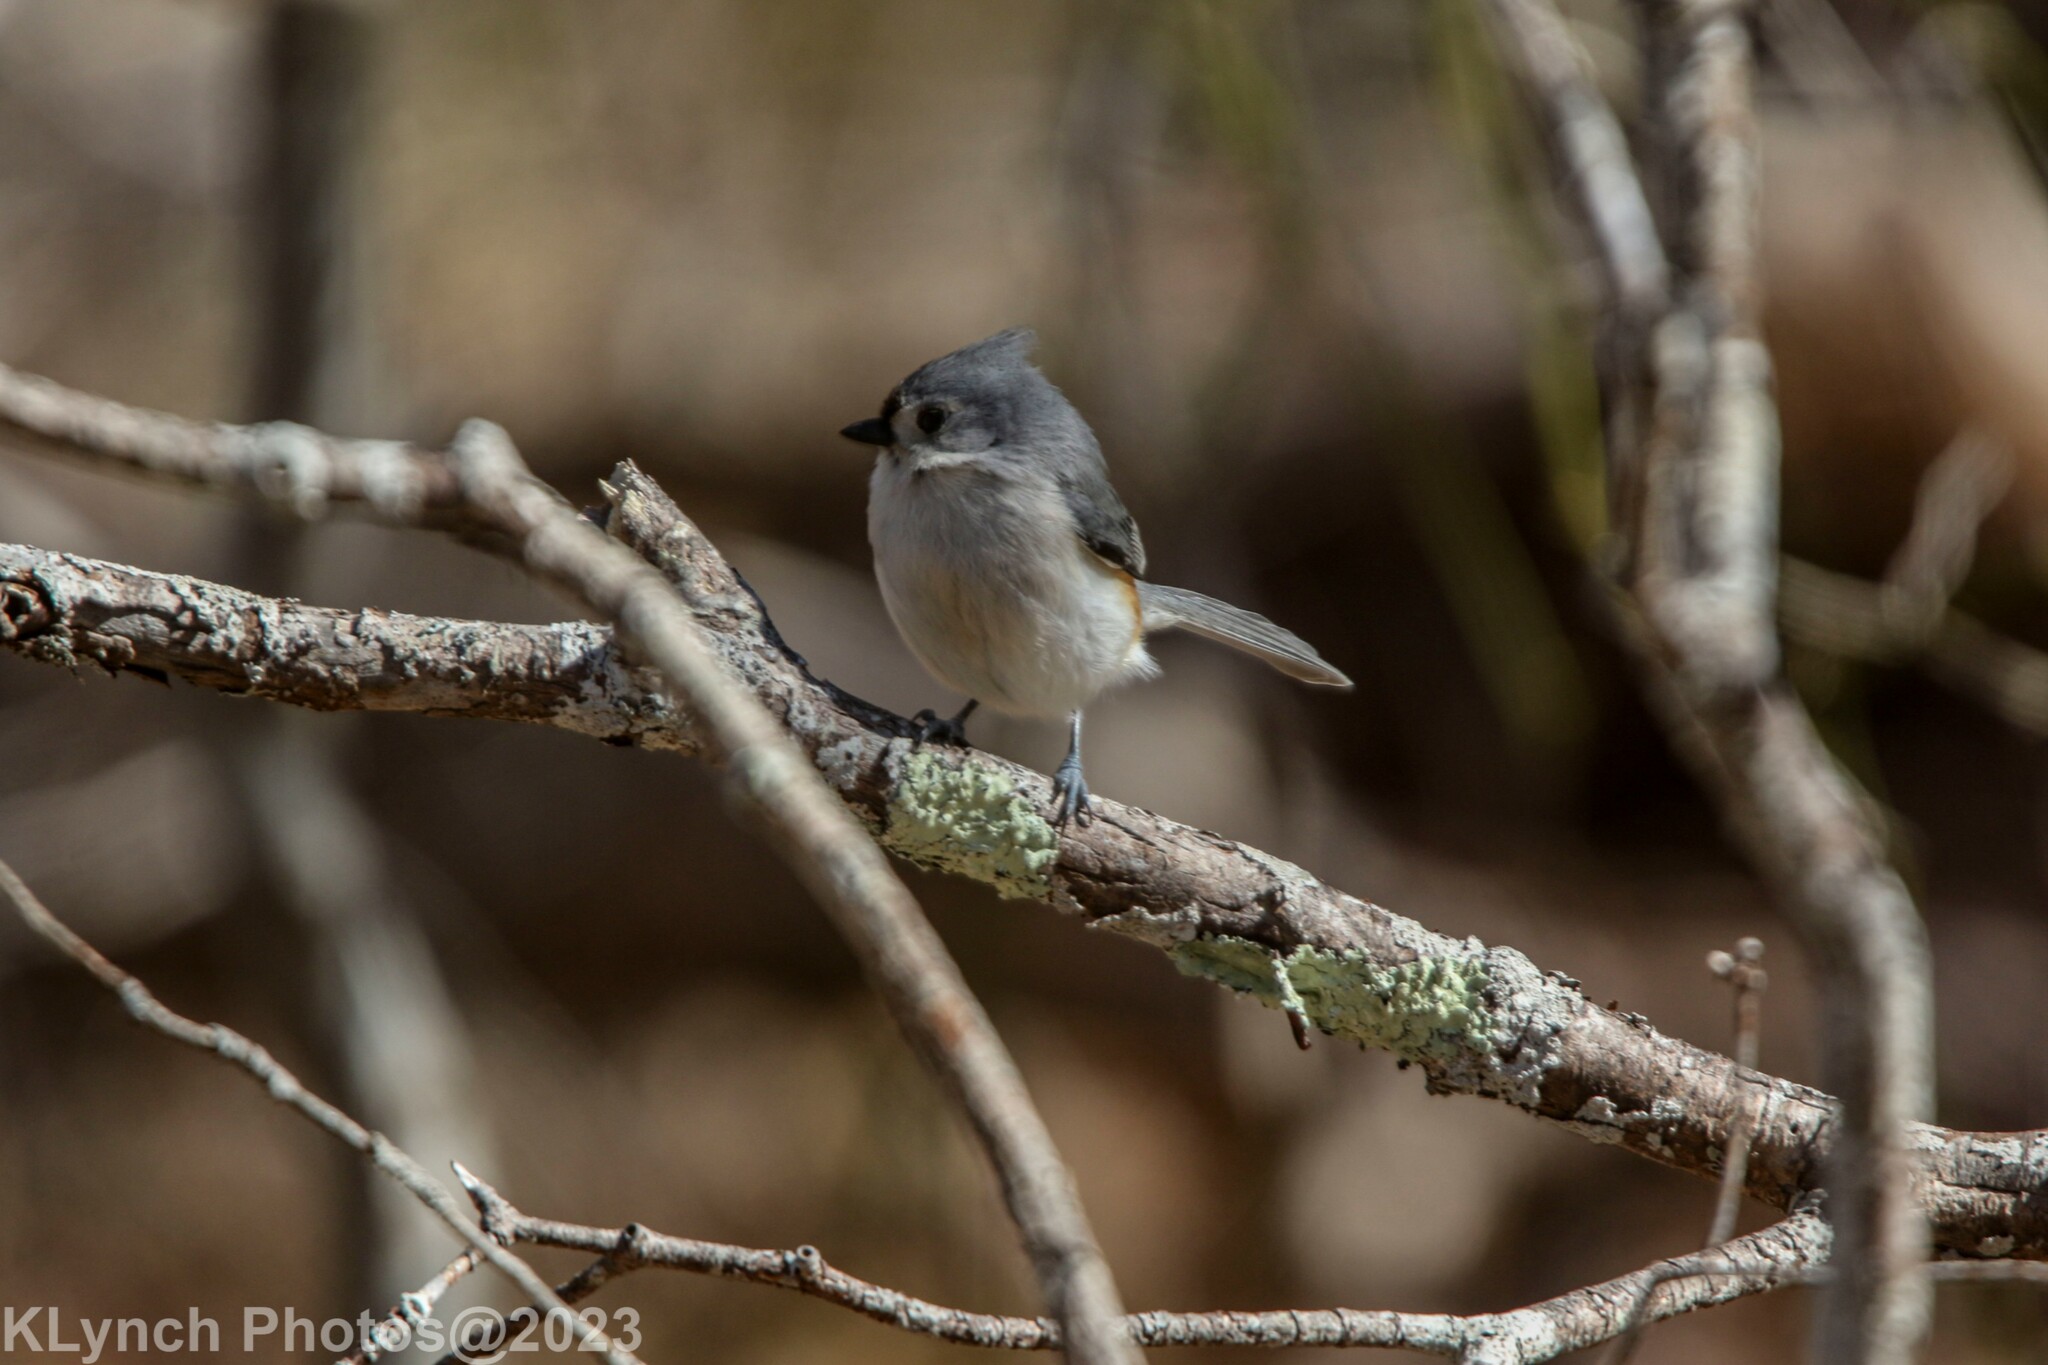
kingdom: Animalia
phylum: Chordata
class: Aves
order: Passeriformes
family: Paridae
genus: Baeolophus
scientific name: Baeolophus bicolor
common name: Tufted titmouse
